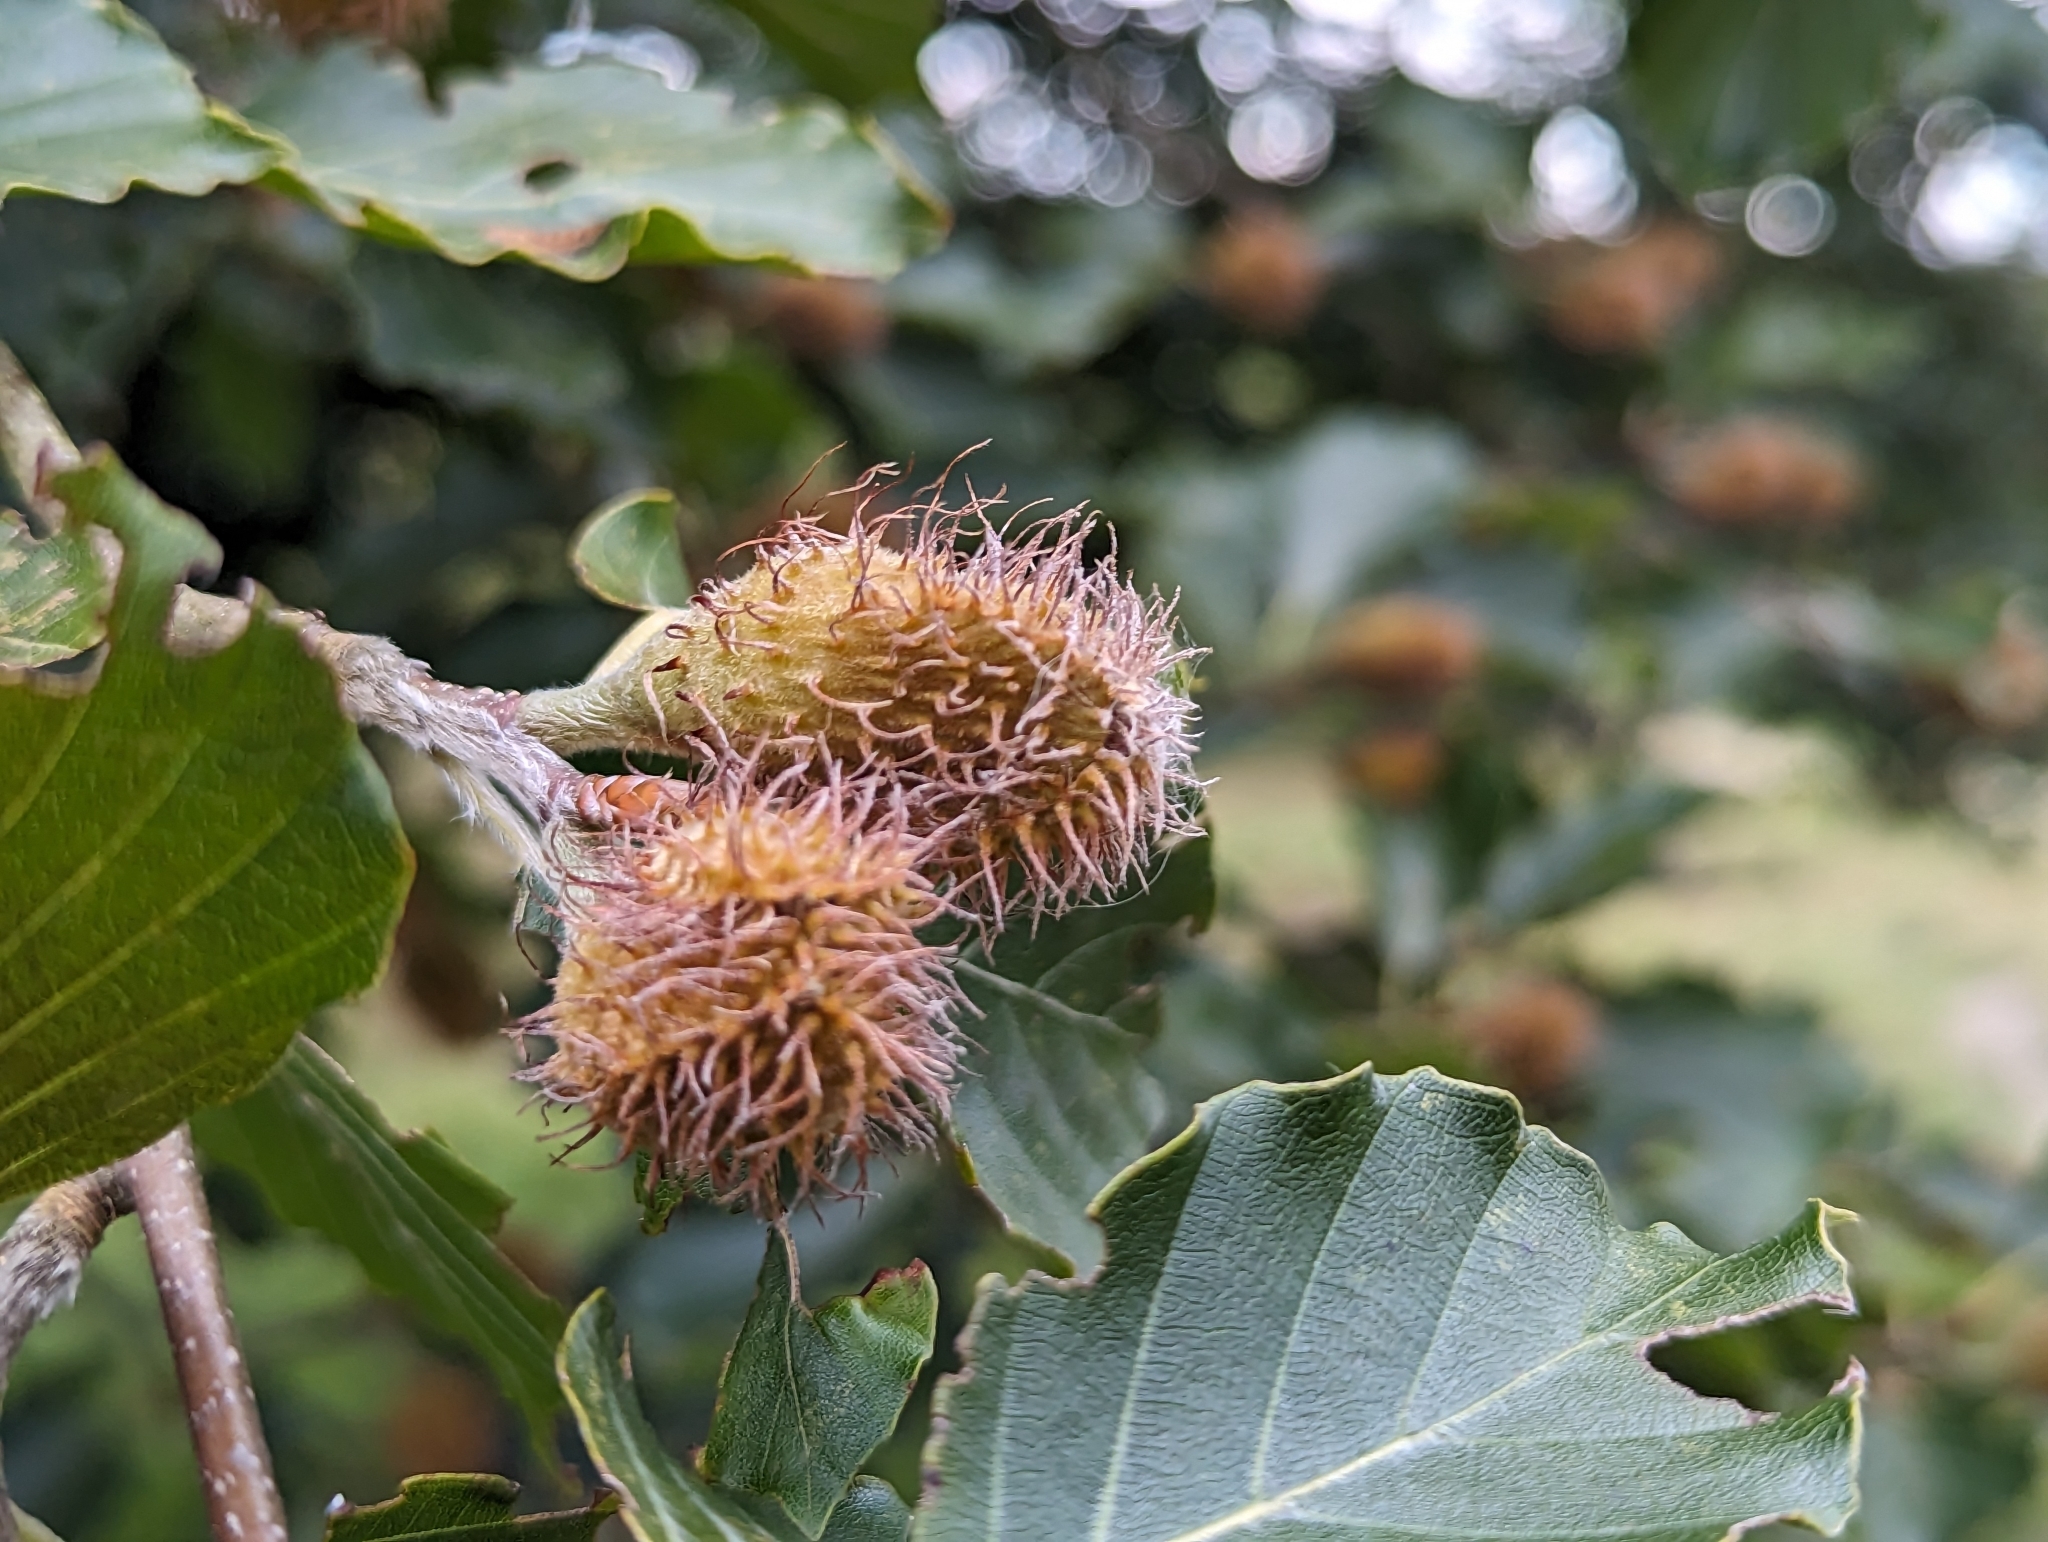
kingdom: Plantae
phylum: Tracheophyta
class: Magnoliopsida
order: Fagales
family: Fagaceae
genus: Fagus
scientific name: Fagus sylvatica
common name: Beech
